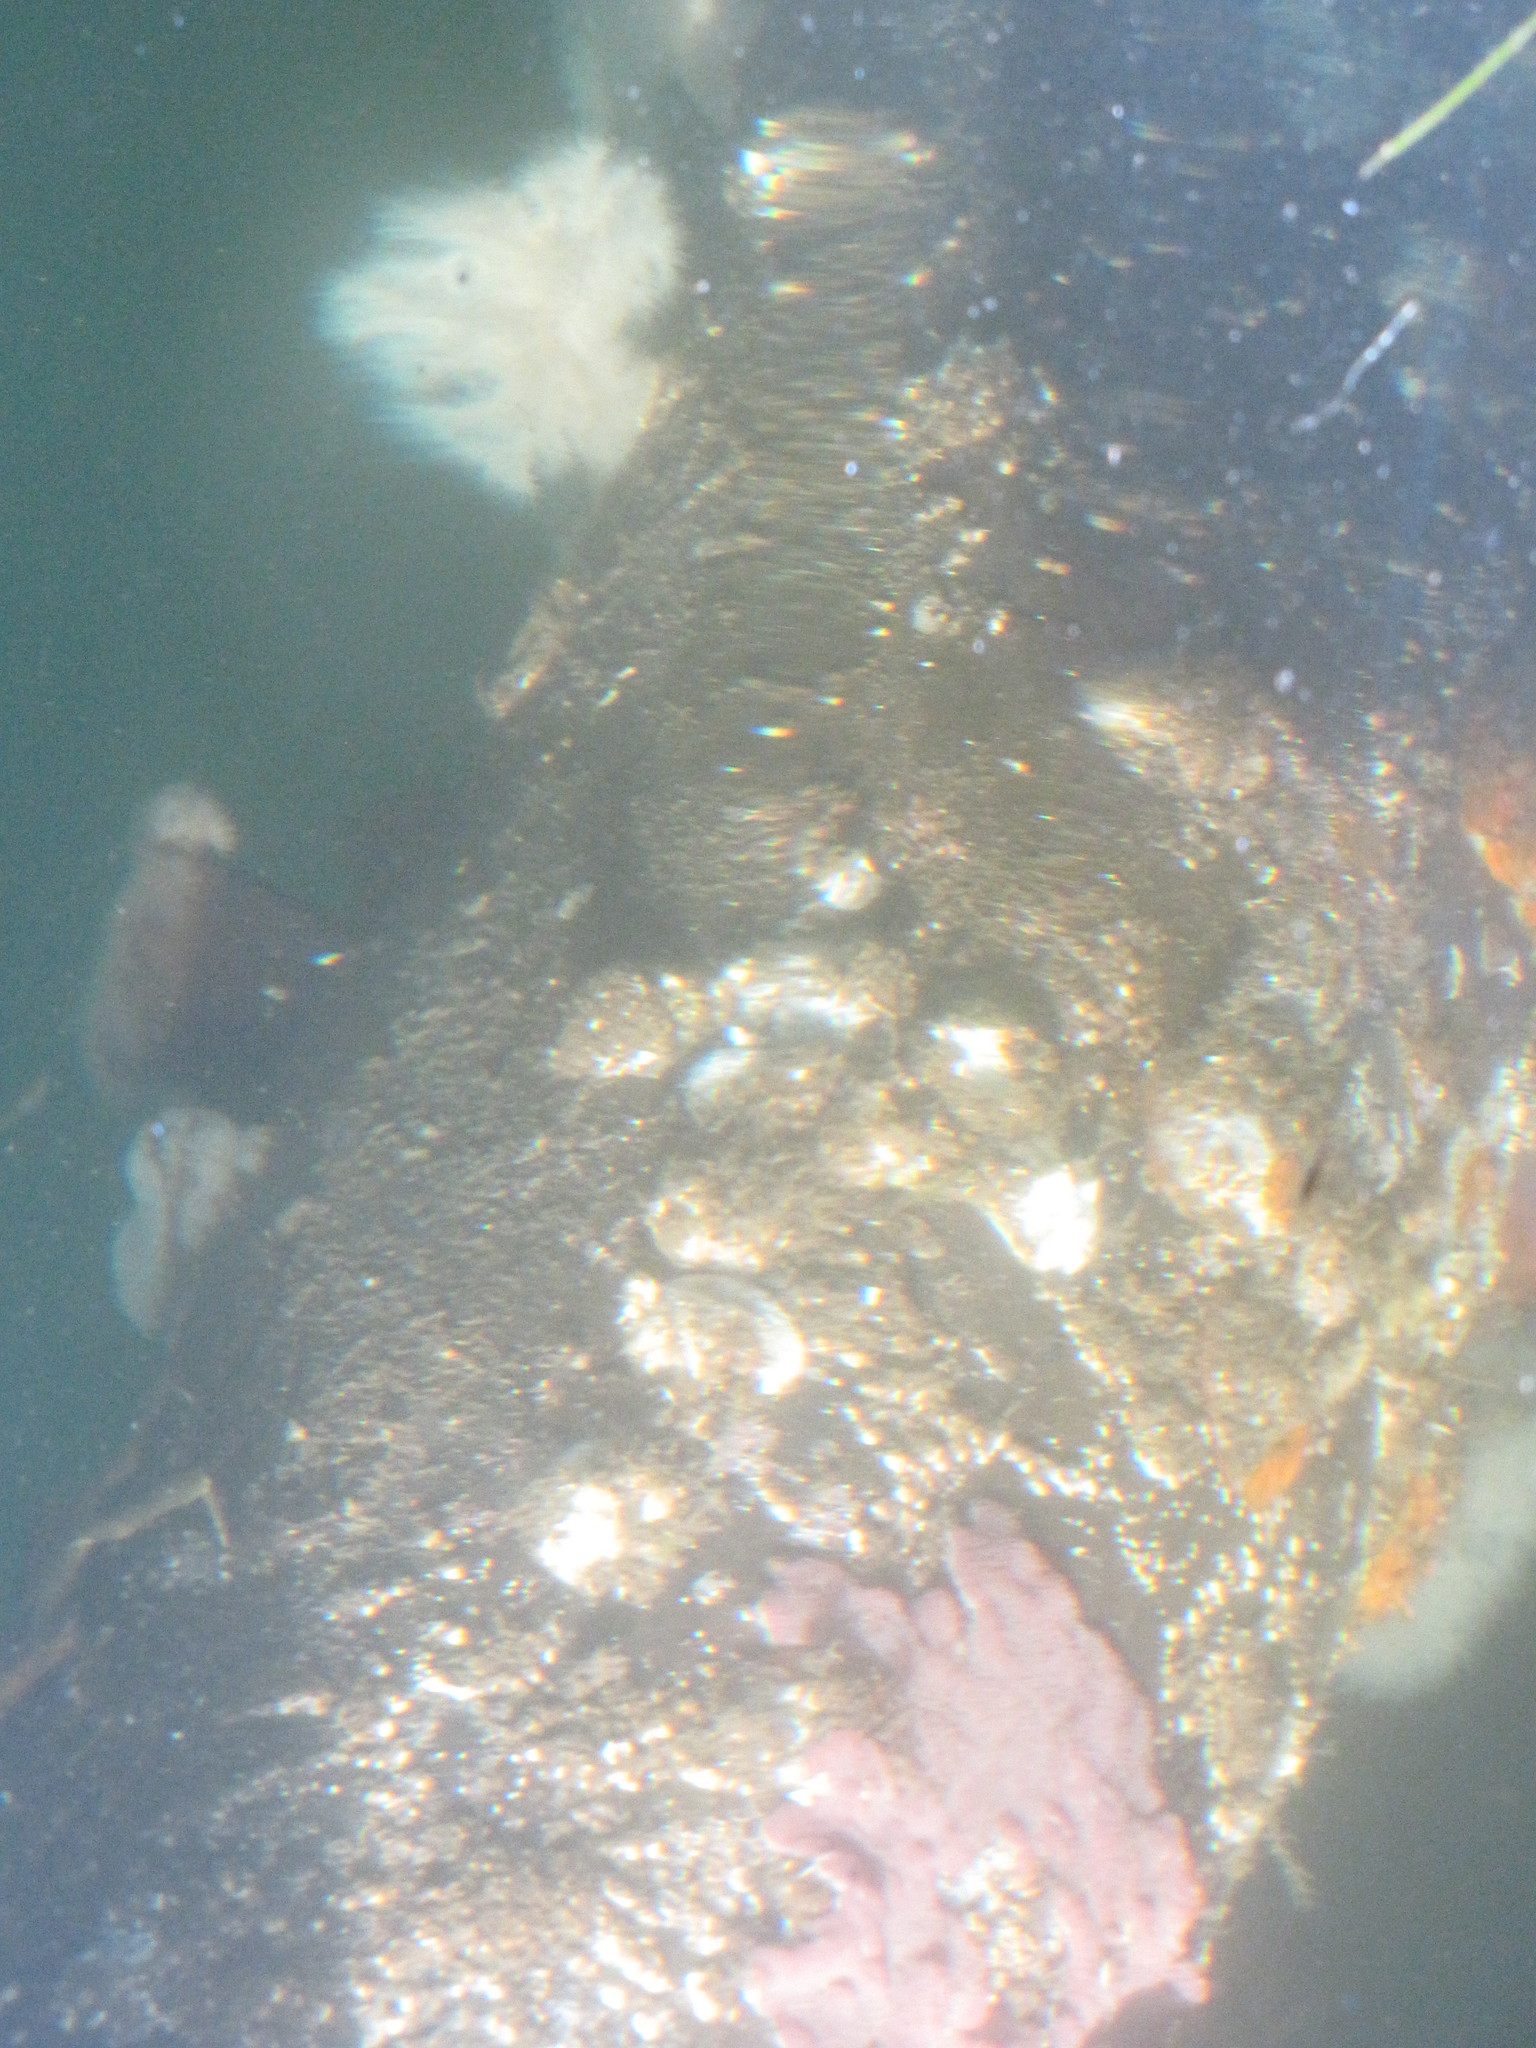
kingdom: Animalia
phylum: Cnidaria
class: Anthozoa
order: Actiniaria
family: Metridiidae
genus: Metridium
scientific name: Metridium senile
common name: Clonal plumose anemone
